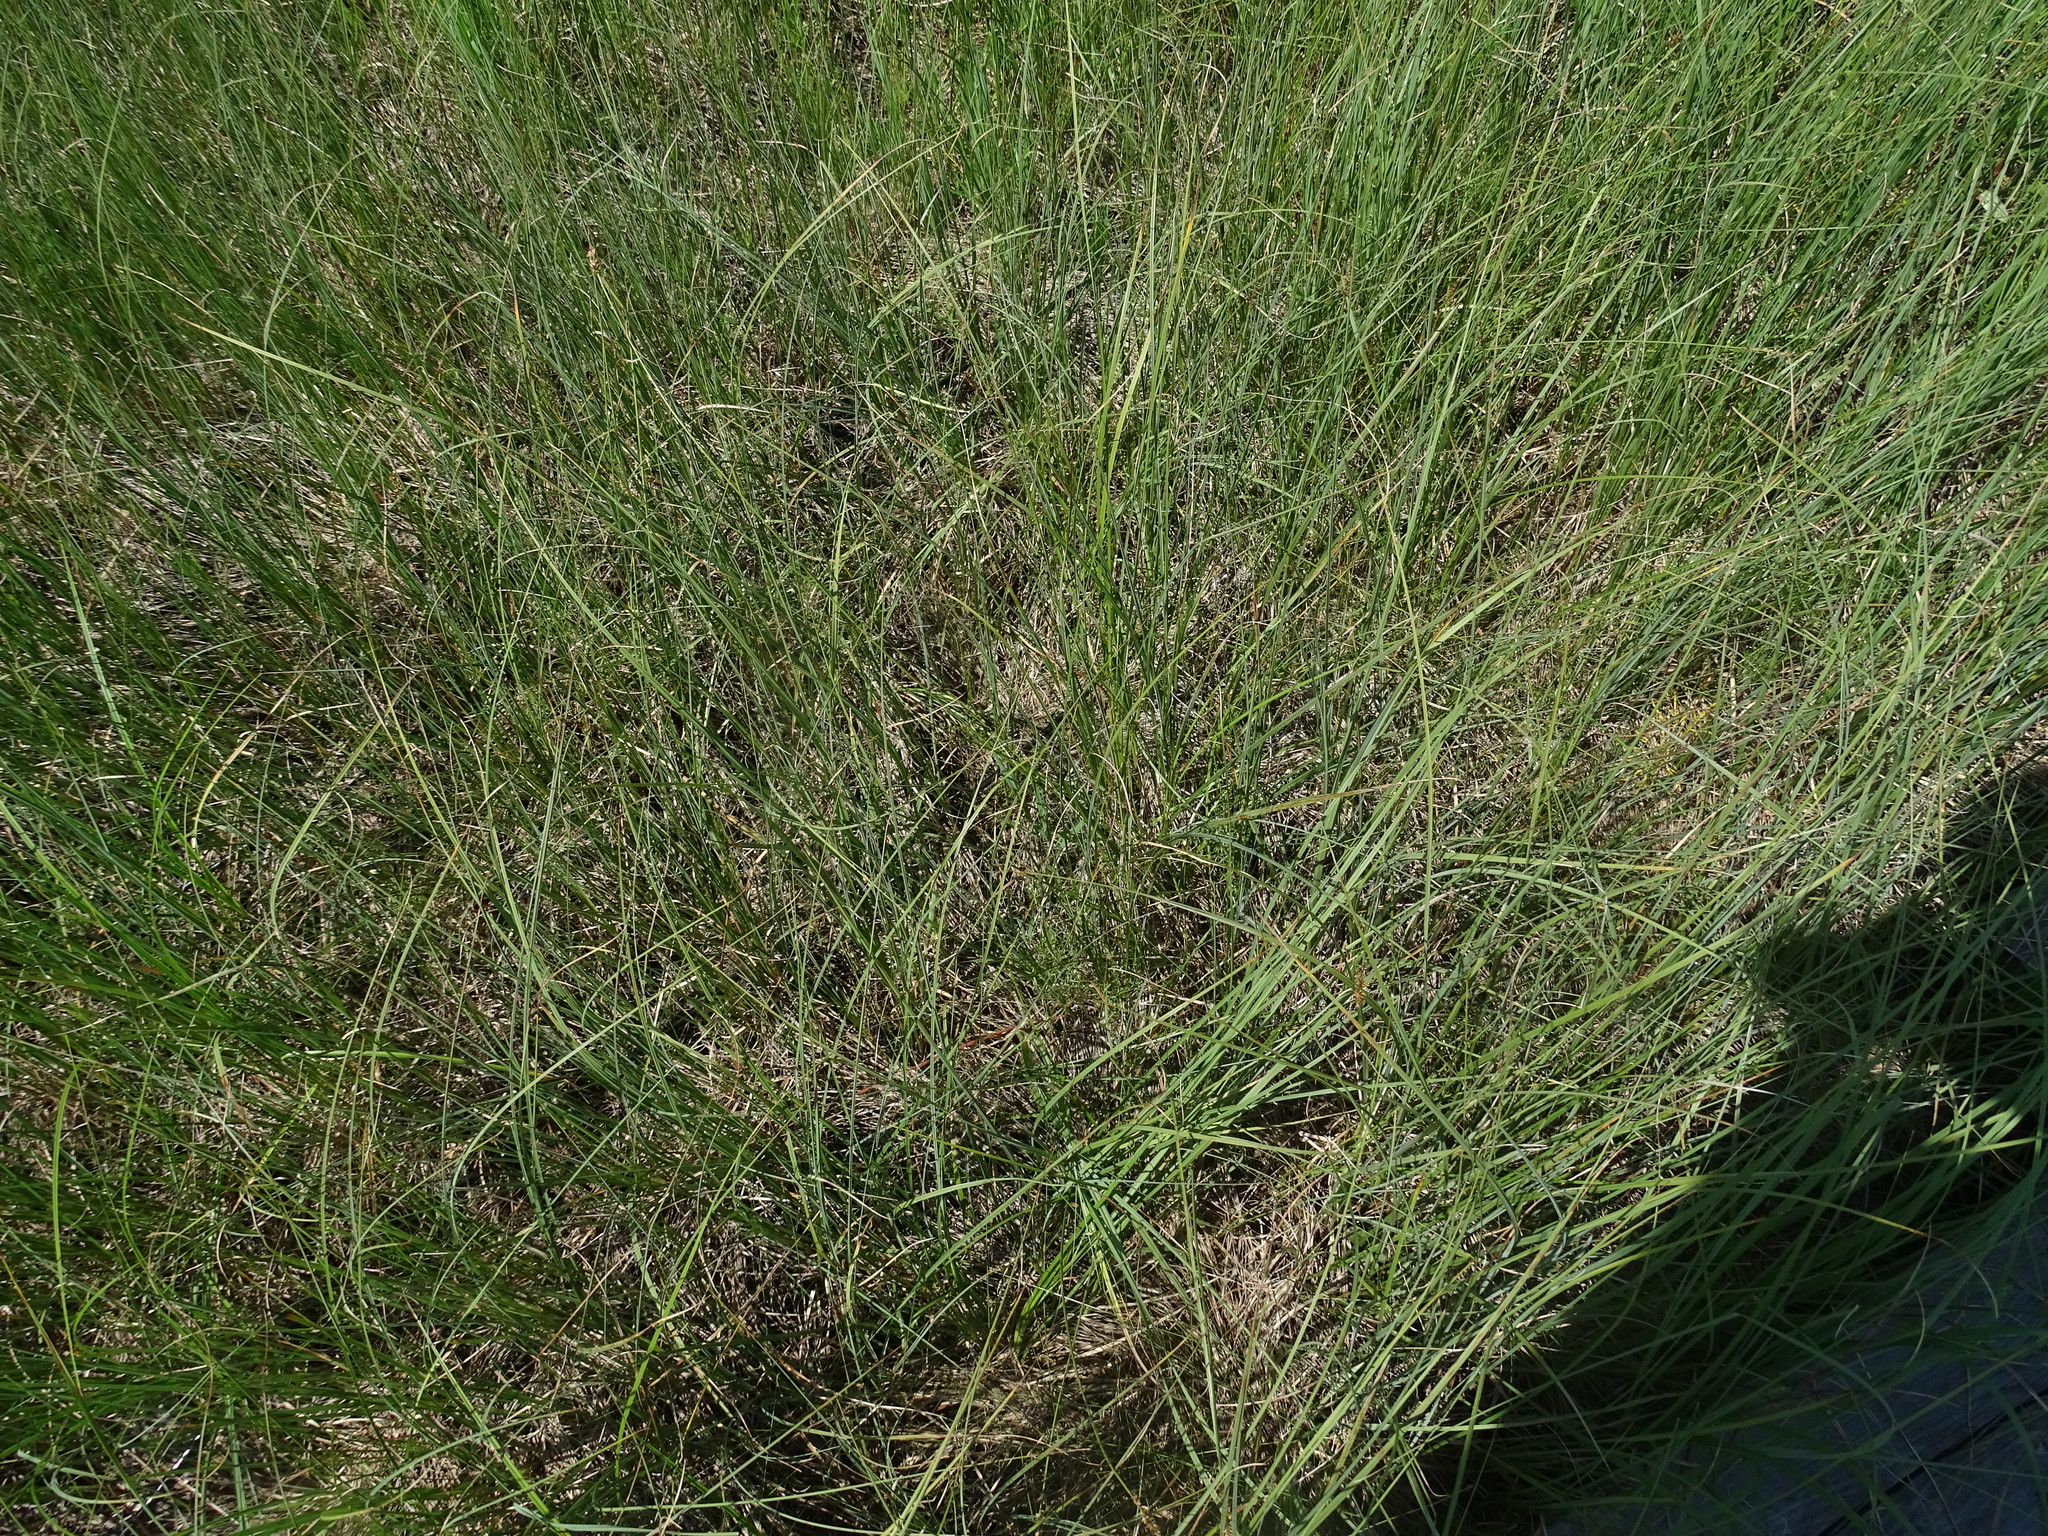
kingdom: Plantae
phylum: Tracheophyta
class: Liliopsida
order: Poales
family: Cyperaceae
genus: Carex
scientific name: Carex diandra
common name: Lesser tussock-sedge
